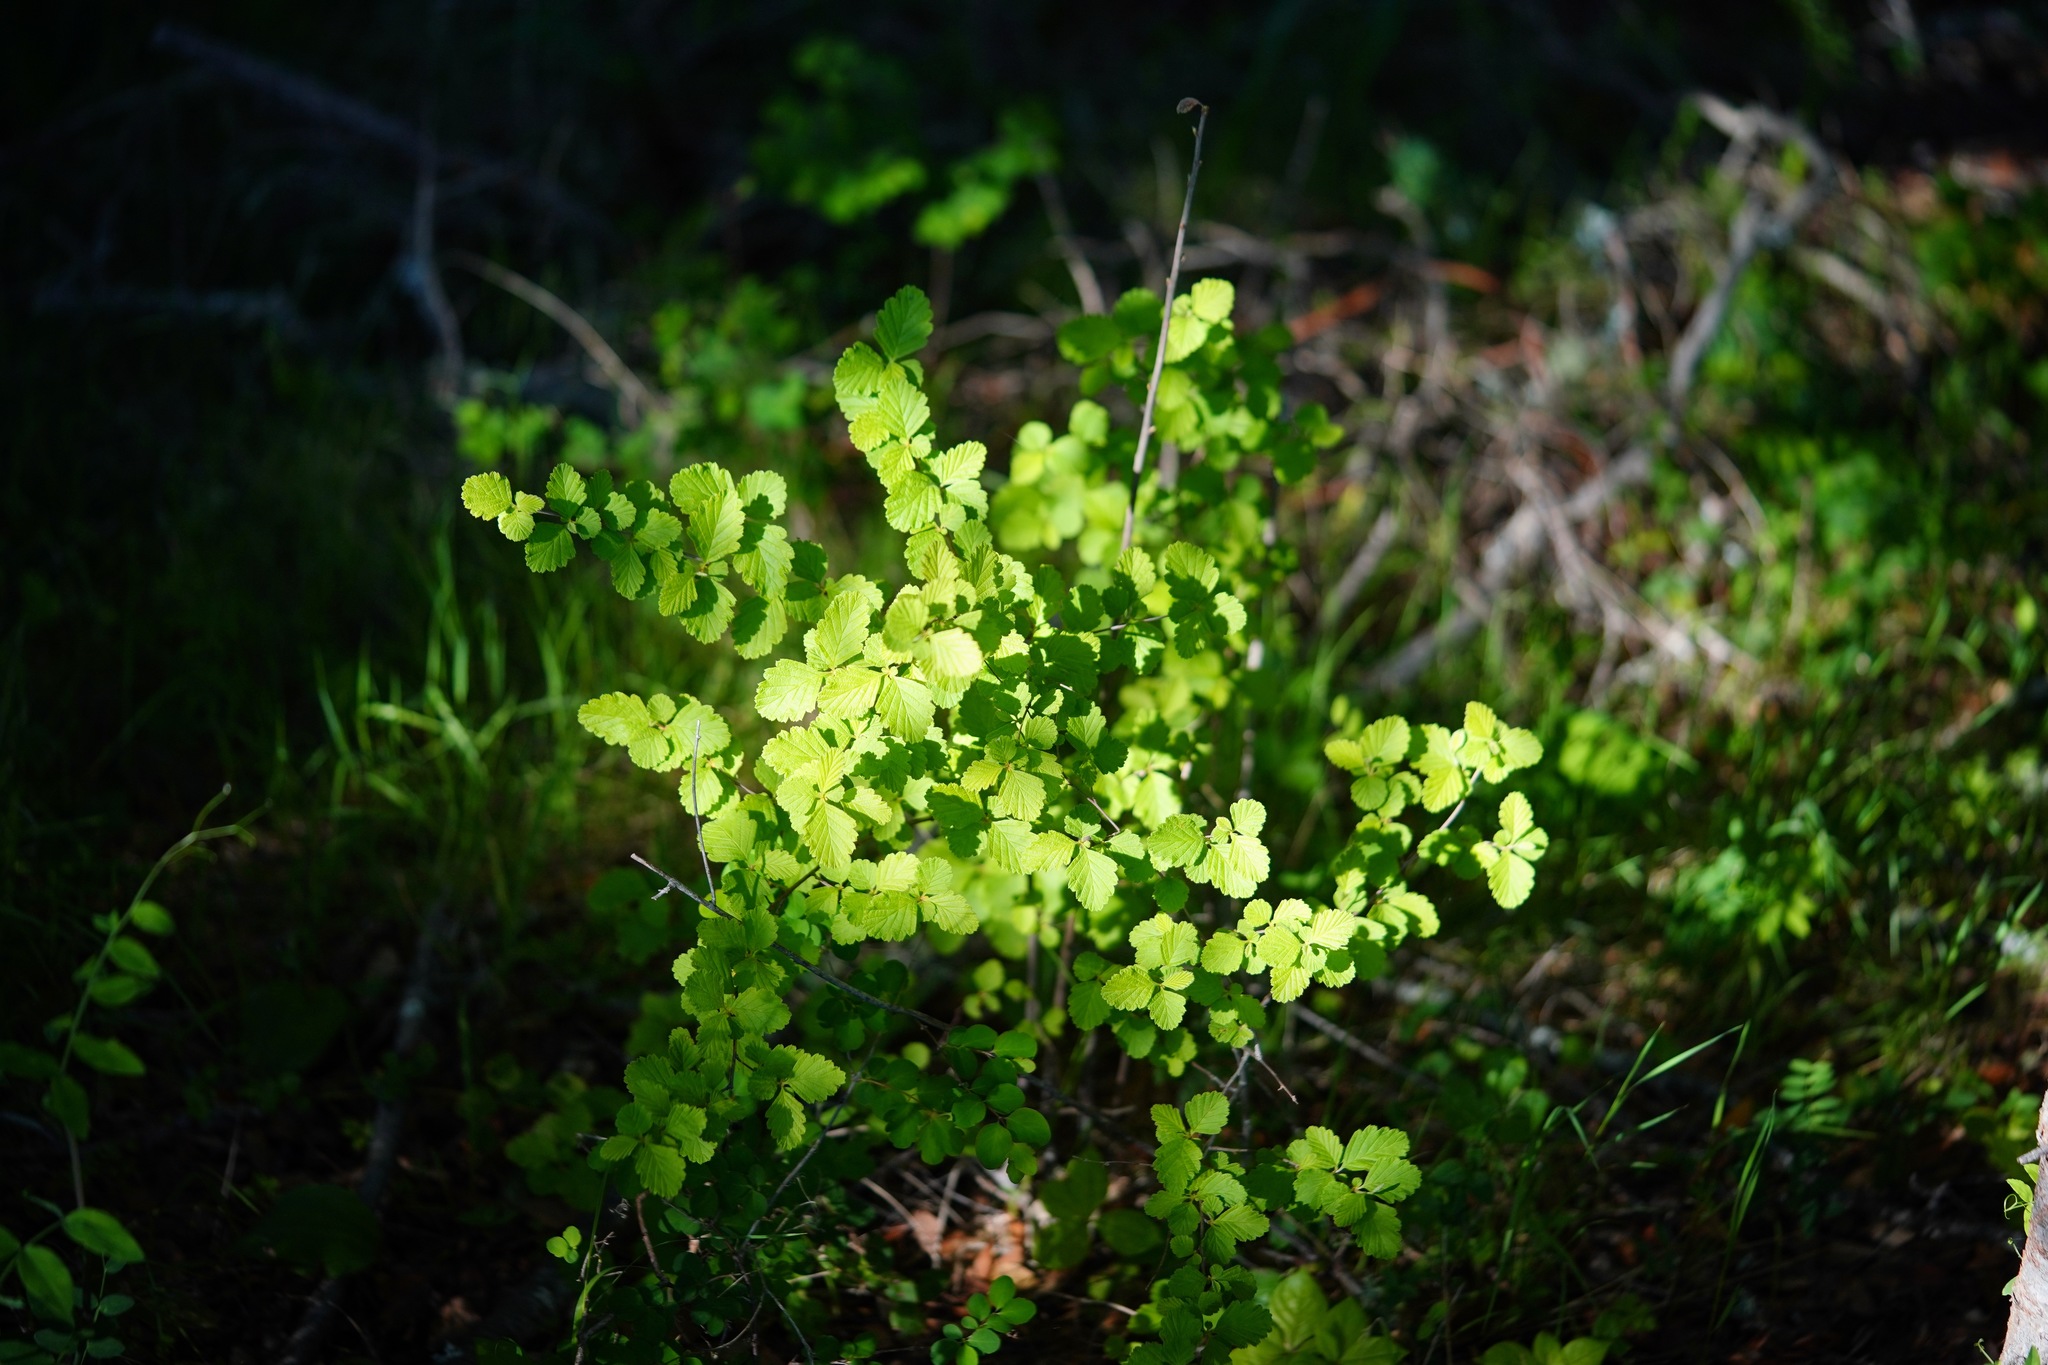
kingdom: Plantae
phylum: Tracheophyta
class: Magnoliopsida
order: Rosales
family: Rosaceae
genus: Holodiscus
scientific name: Holodiscus discolor
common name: Oceanspray
